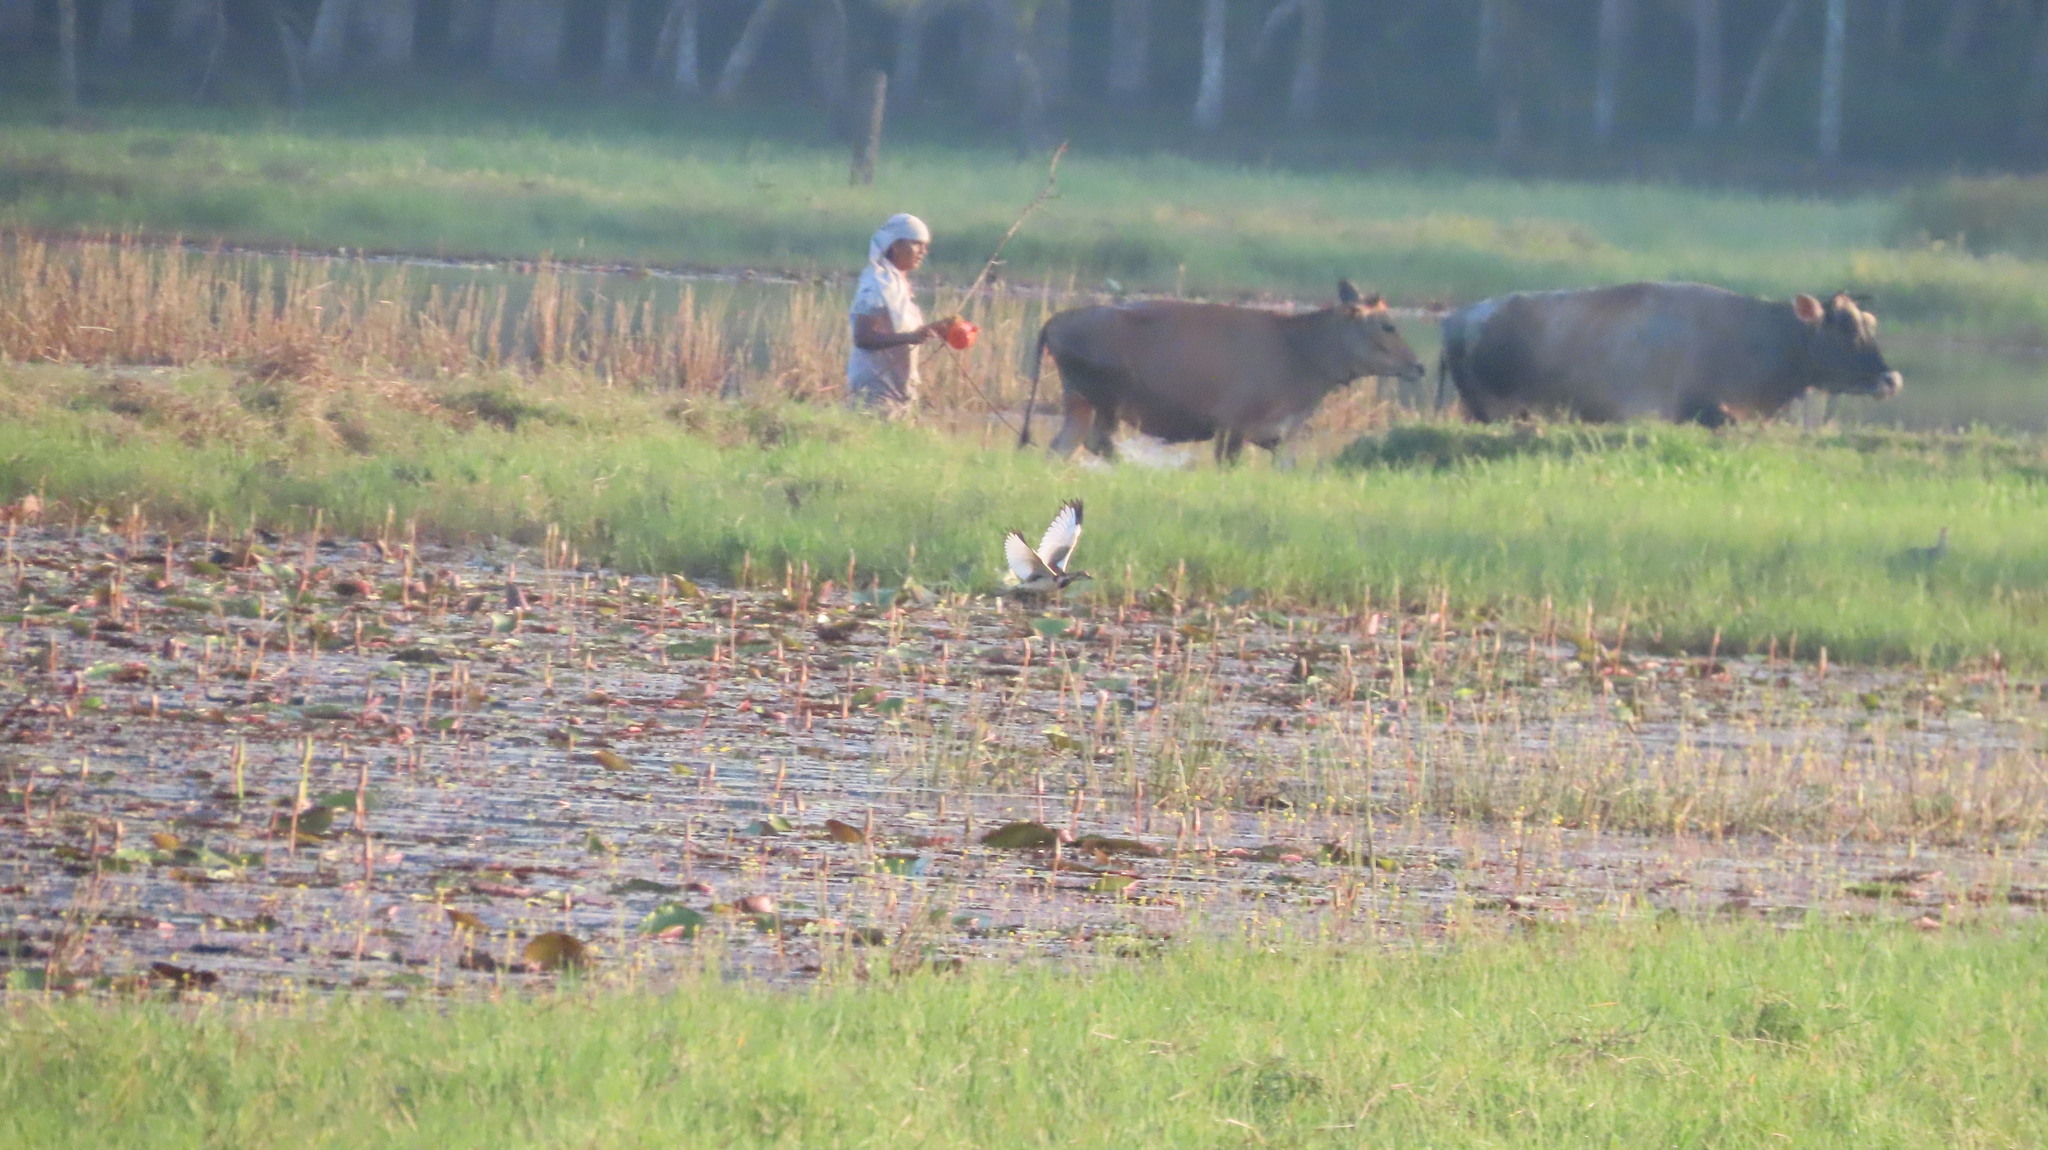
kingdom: Animalia
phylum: Chordata
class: Aves
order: Charadriiformes
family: Jacanidae
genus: Hydrophasianus
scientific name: Hydrophasianus chirurgus
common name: Pheasant-tailed jacana
